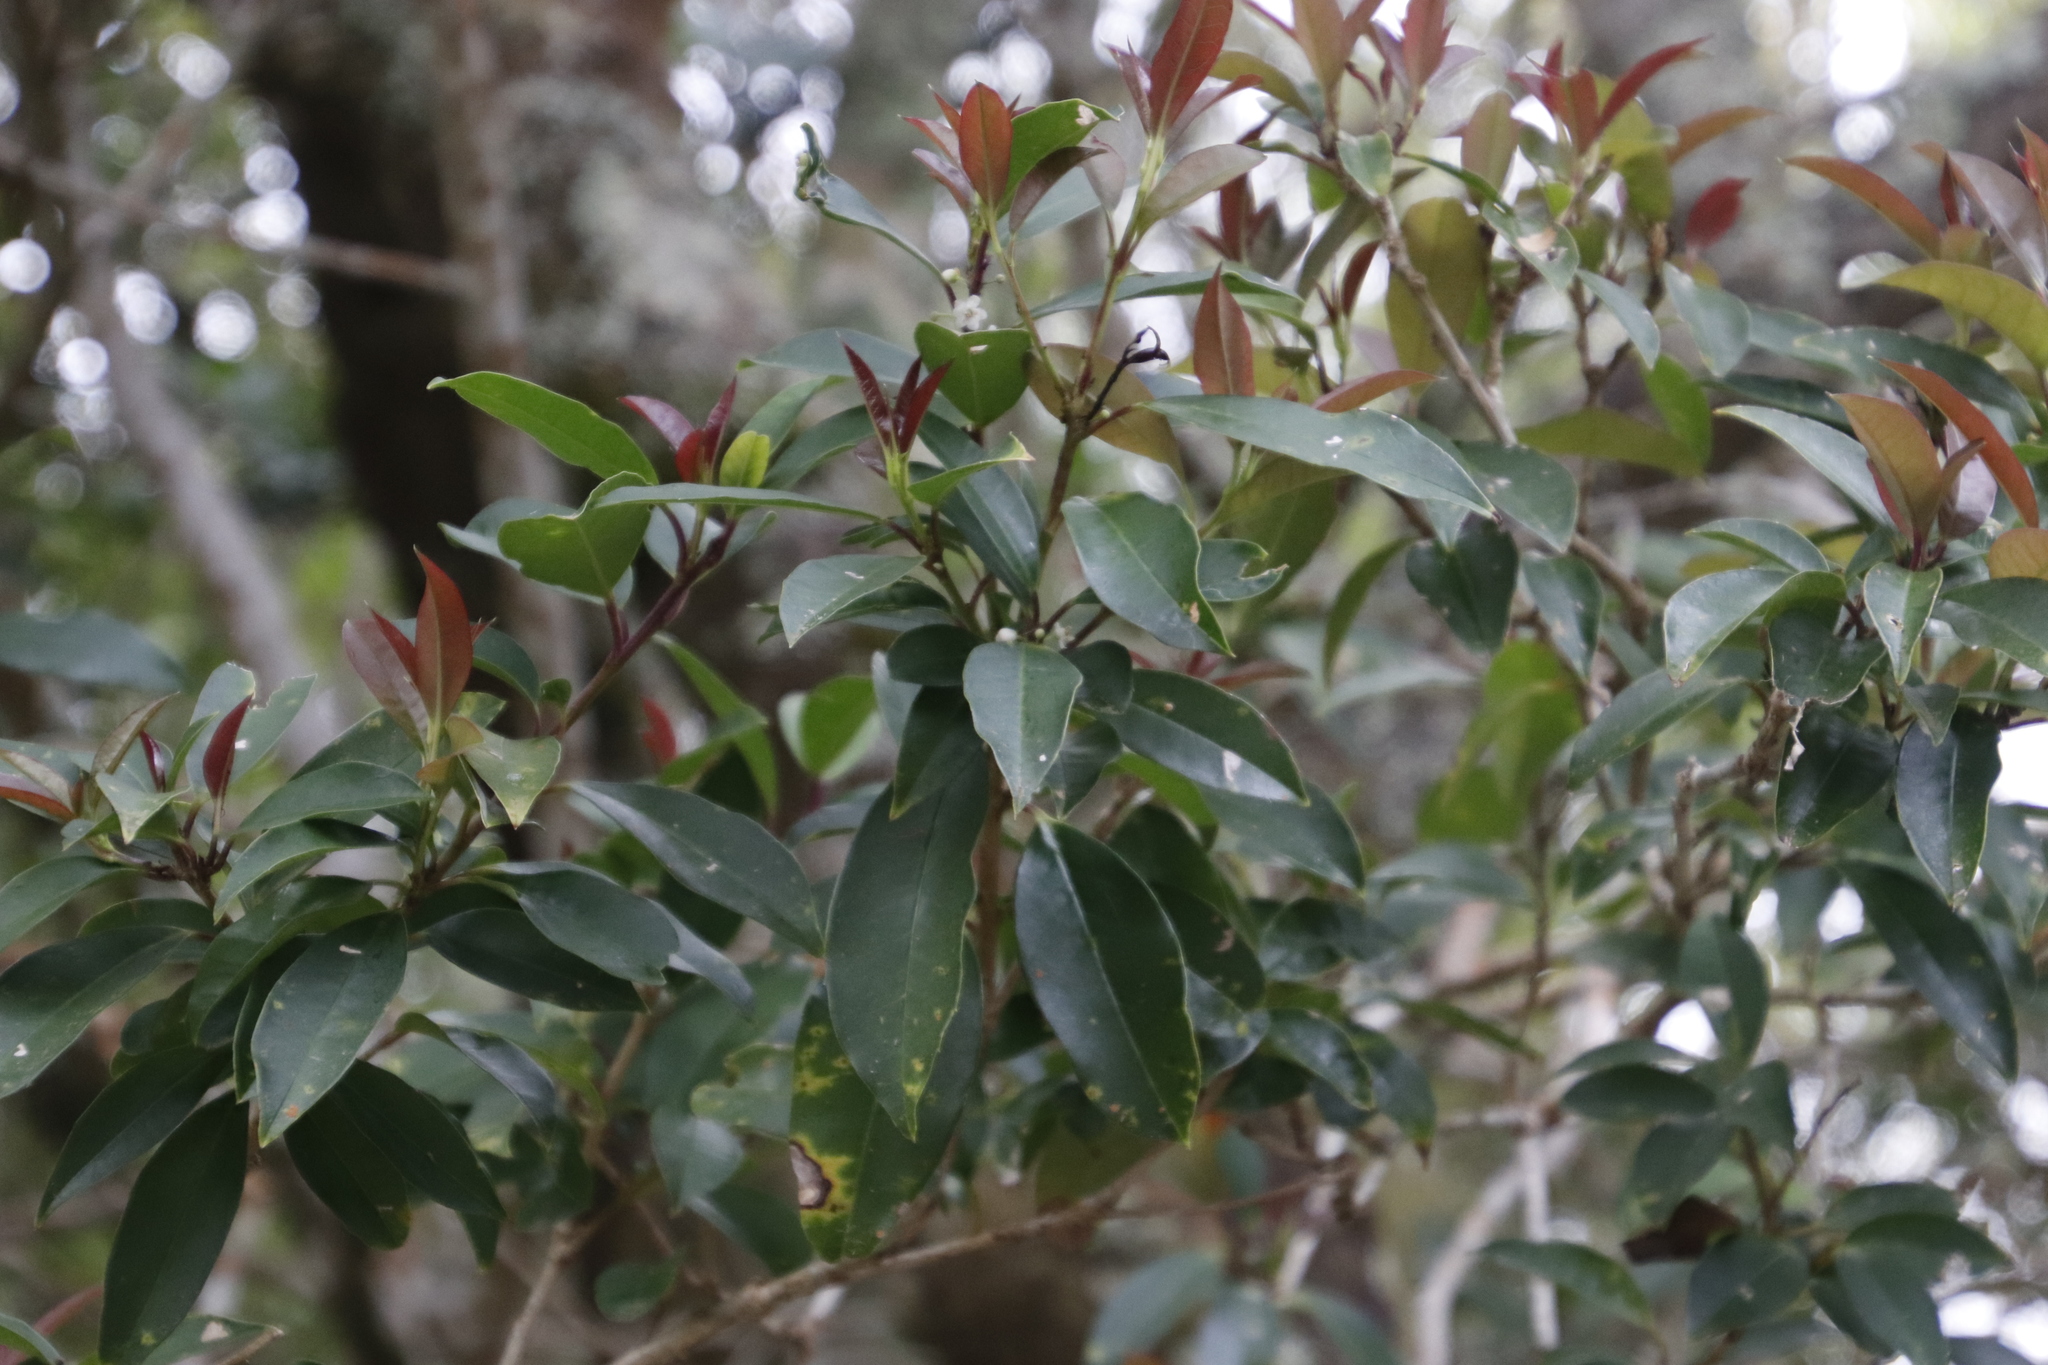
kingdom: Plantae
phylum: Tracheophyta
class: Magnoliopsida
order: Aquifoliales
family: Aquifoliaceae
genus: Ilex
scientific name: Ilex mitis
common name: African holly
